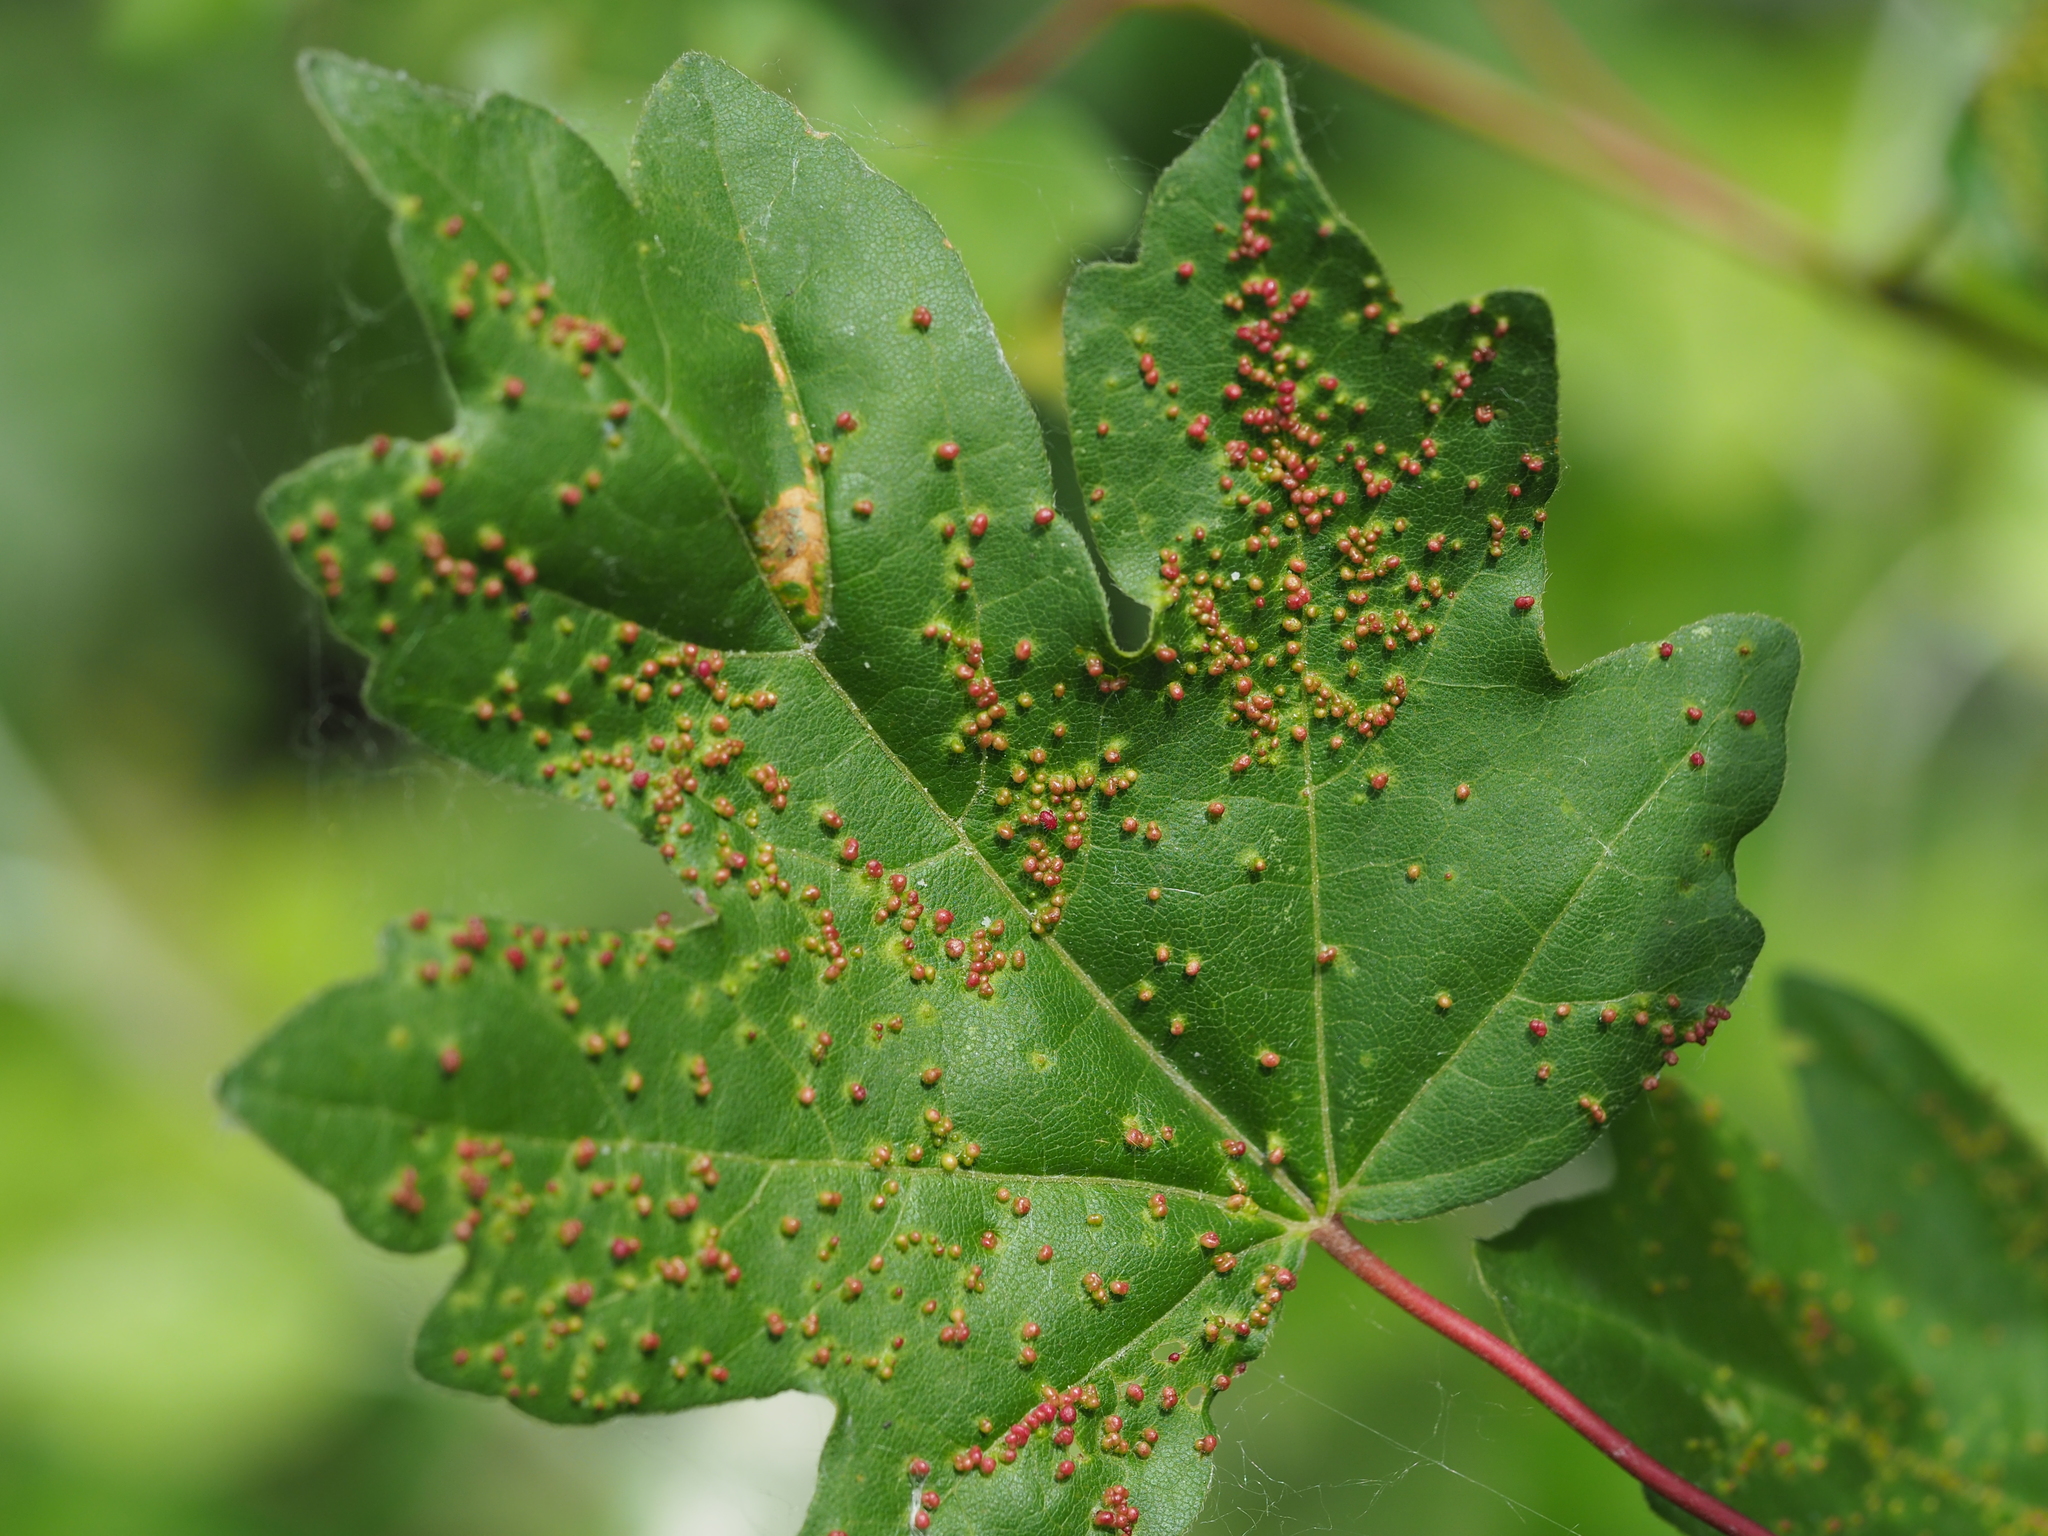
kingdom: Animalia
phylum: Arthropoda
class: Arachnida
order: Trombidiformes
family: Eriophyidae
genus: Aceria
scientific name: Aceria myriadeum
